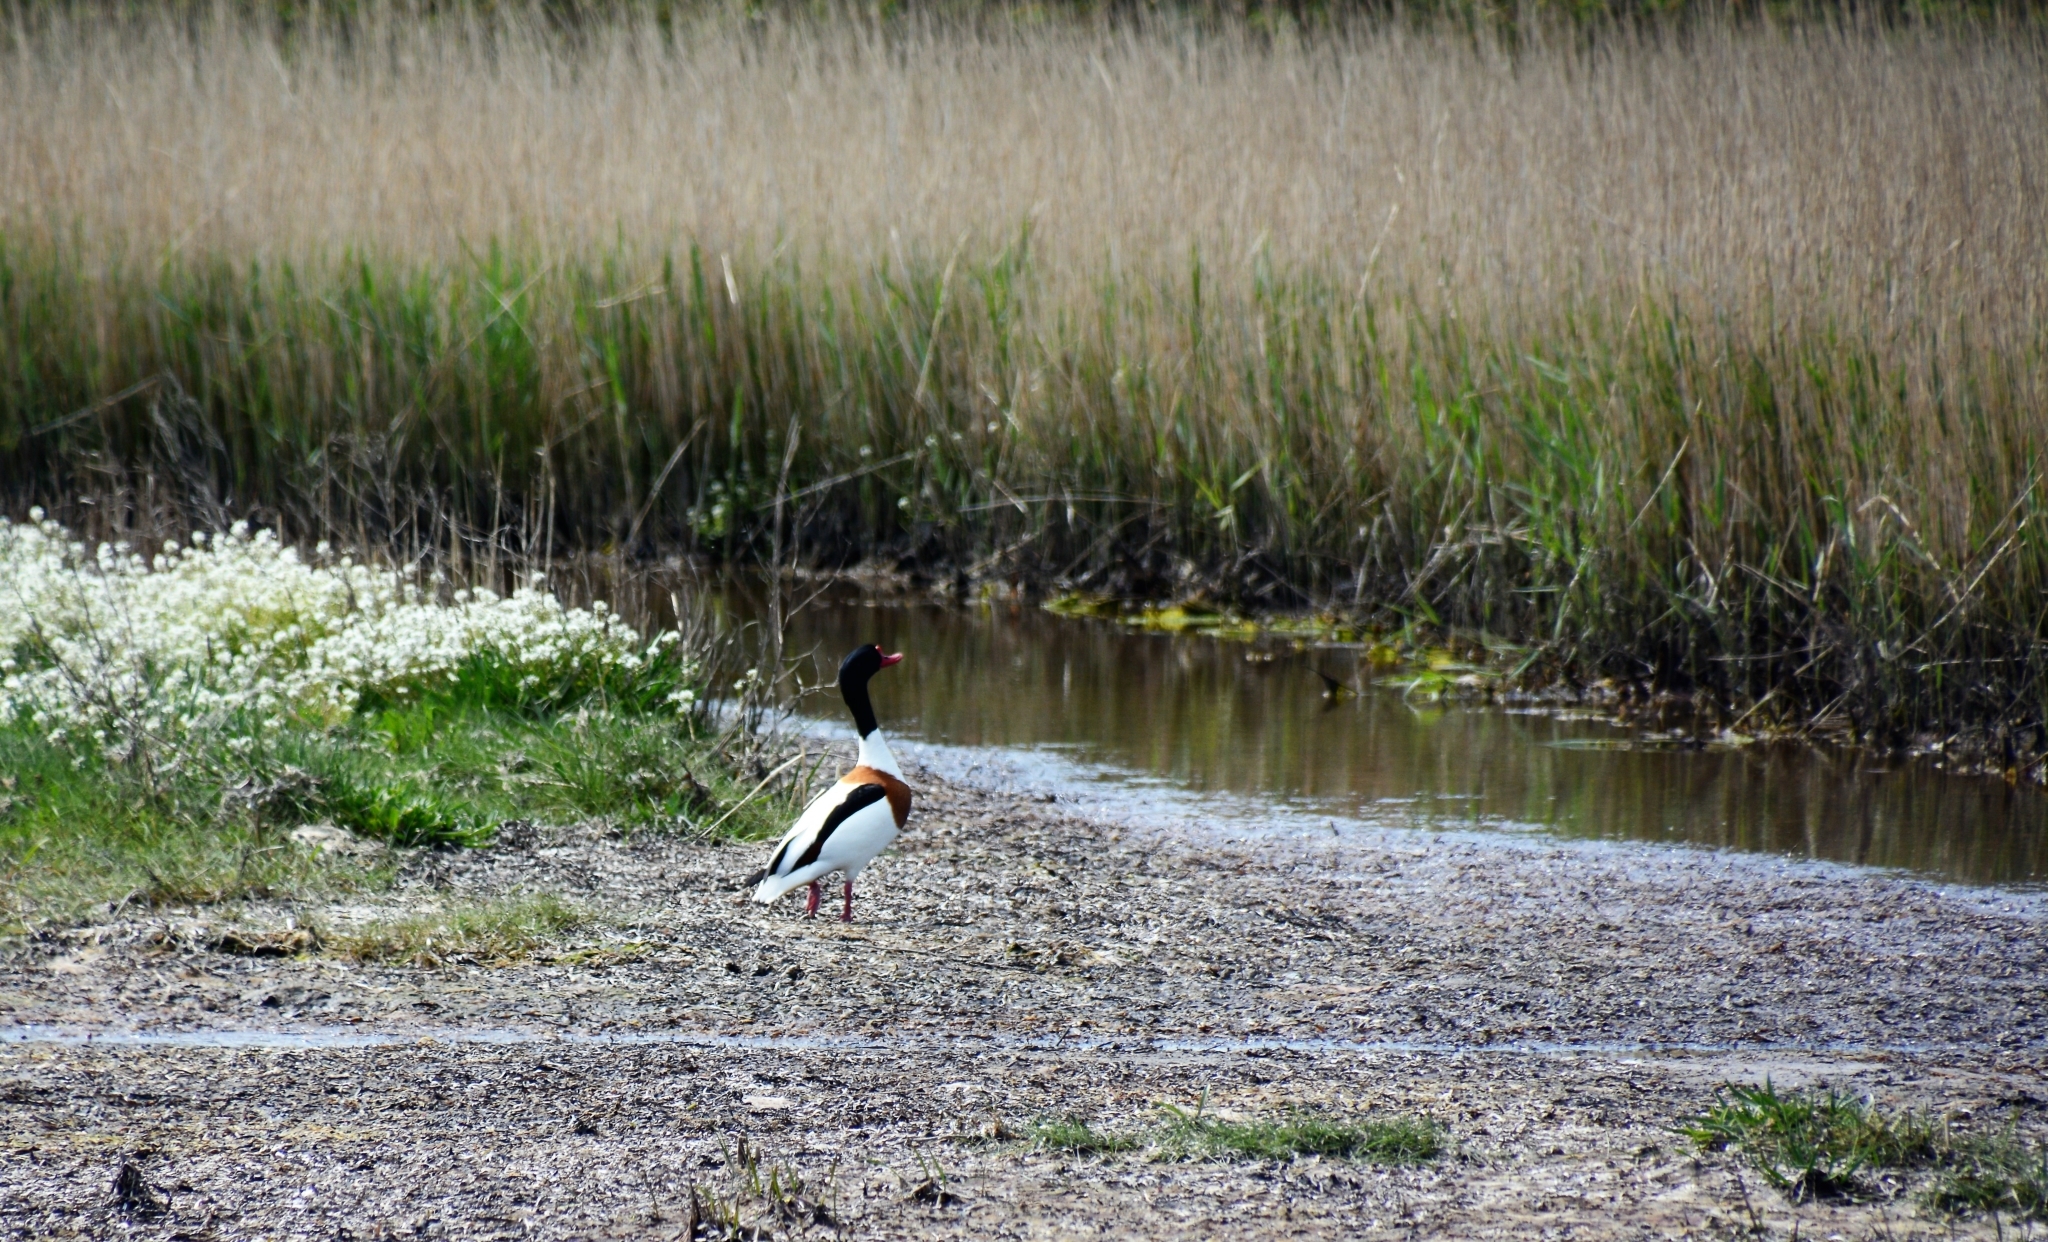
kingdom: Animalia
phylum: Chordata
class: Aves
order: Anseriformes
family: Anatidae
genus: Tadorna
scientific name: Tadorna tadorna
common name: Common shelduck
